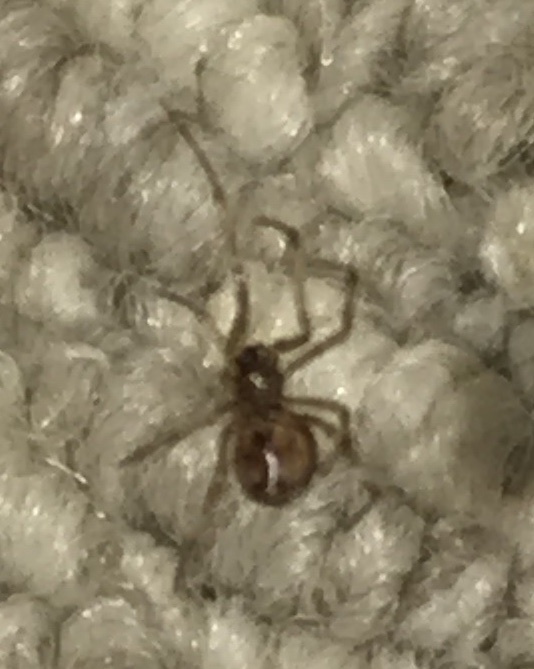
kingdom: Animalia
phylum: Arthropoda
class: Arachnida
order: Araneae
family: Theridiidae
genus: Steatoda
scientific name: Steatoda triangulosa
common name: Triangulate bud spider
